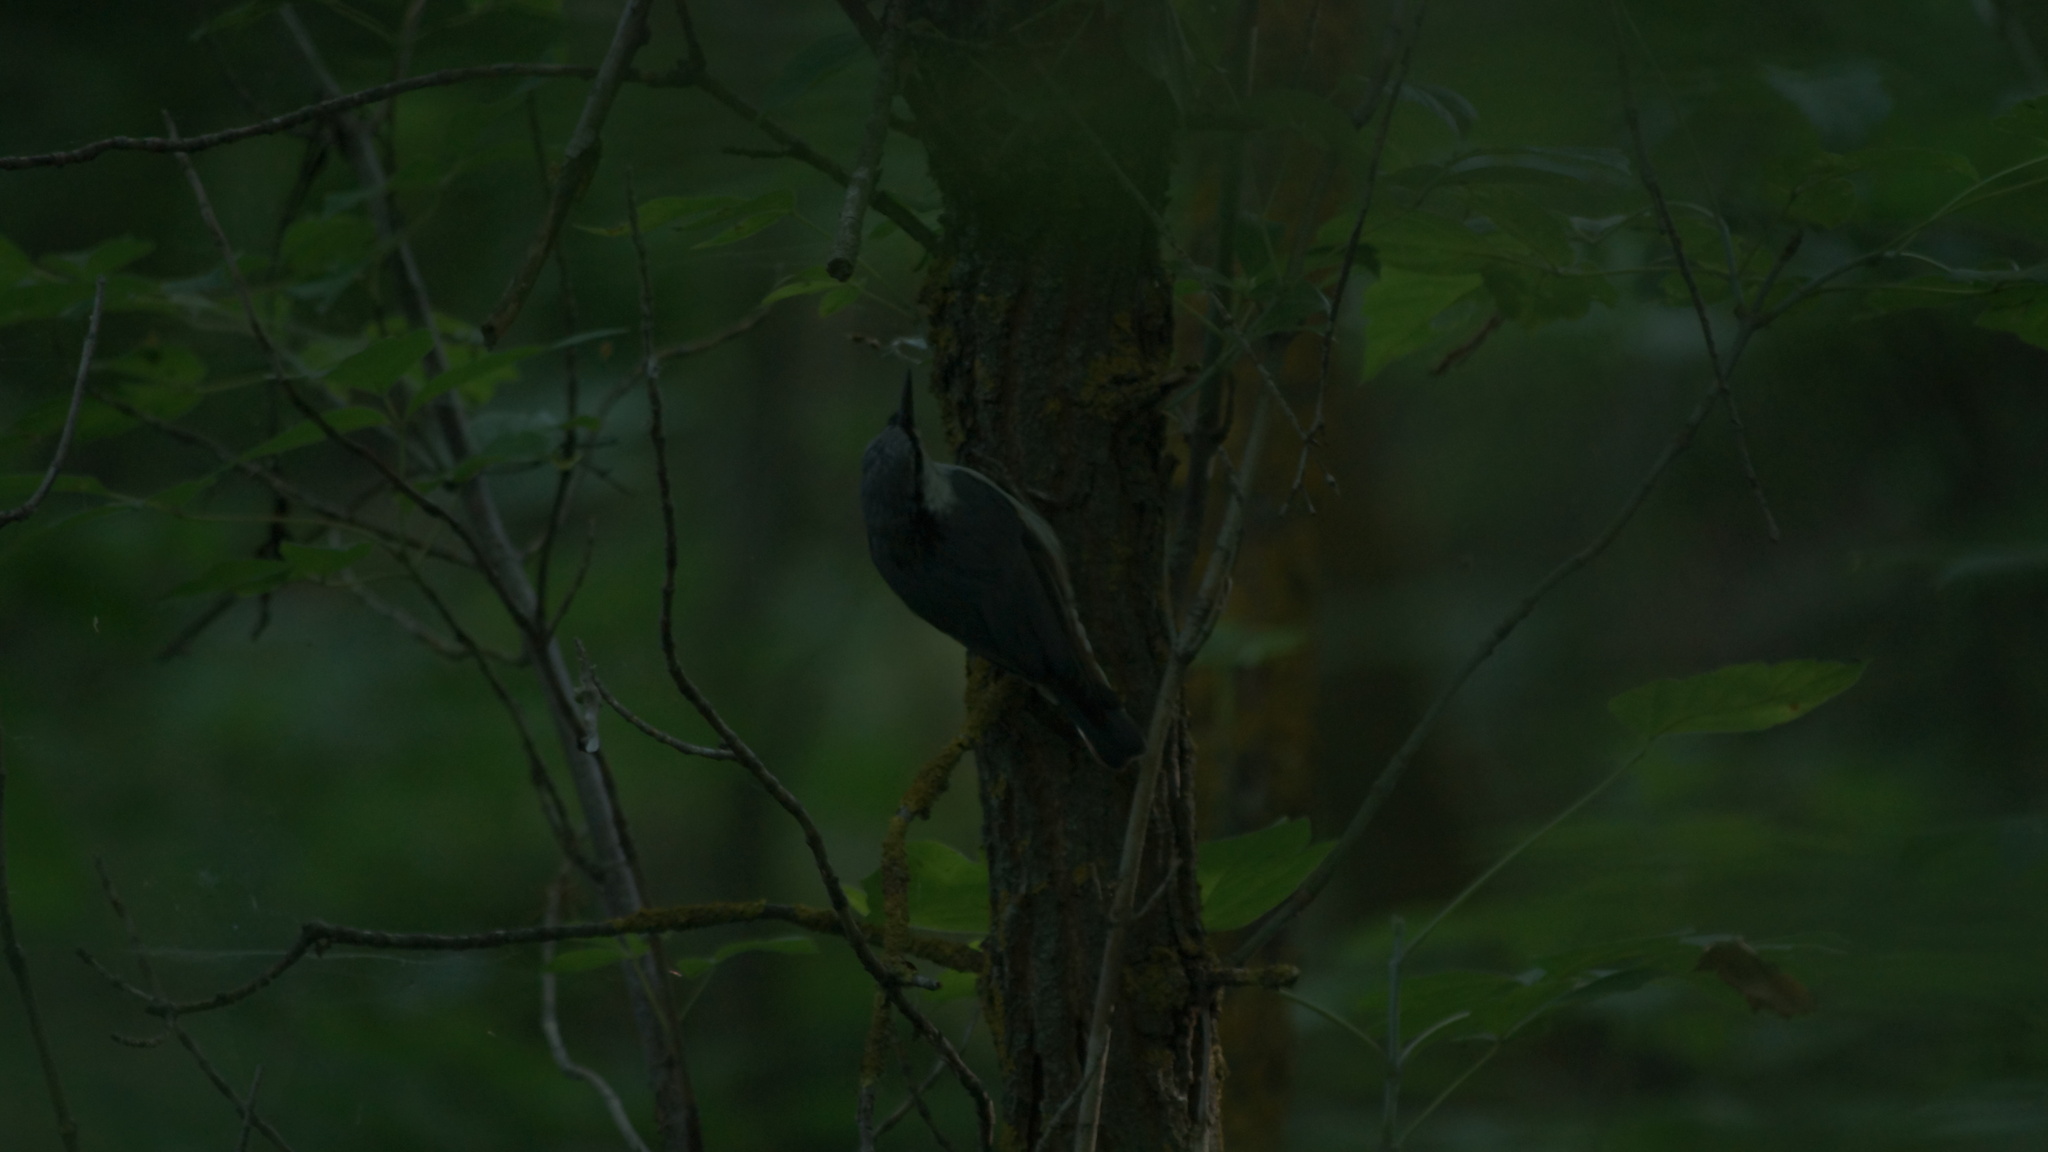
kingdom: Animalia
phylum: Chordata
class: Aves
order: Passeriformes
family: Sittidae
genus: Sitta
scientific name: Sitta europaea
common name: Eurasian nuthatch
